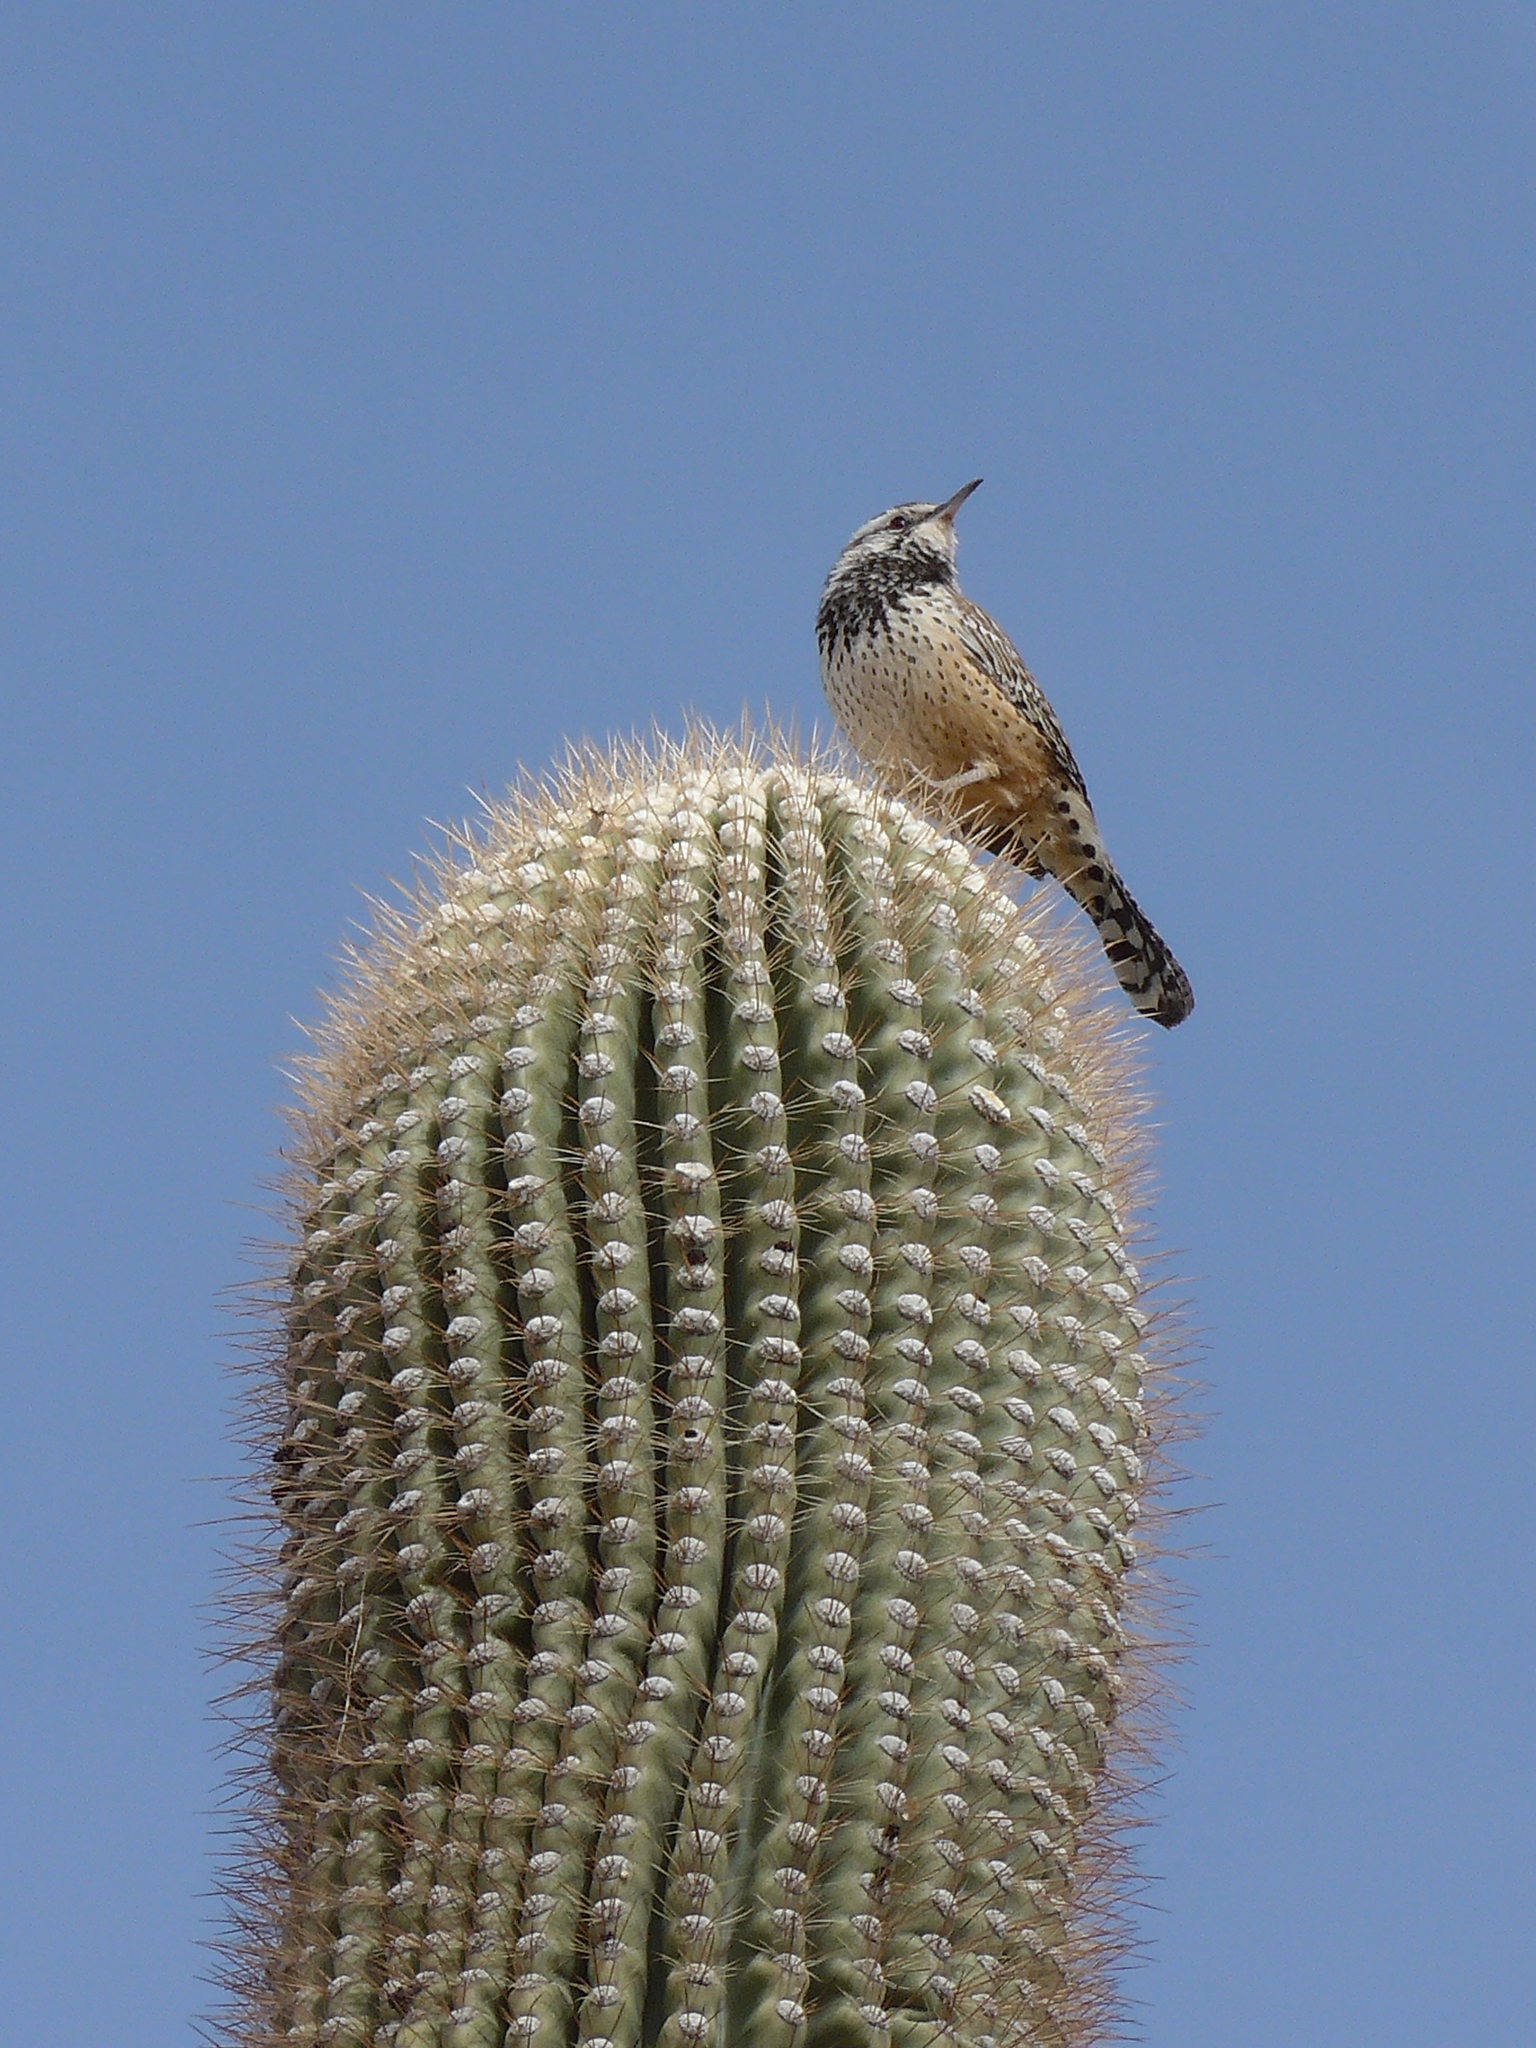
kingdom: Animalia
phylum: Chordata
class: Aves
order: Passeriformes
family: Troglodytidae
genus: Campylorhynchus
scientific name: Campylorhynchus brunneicapillus
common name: Cactus wren
